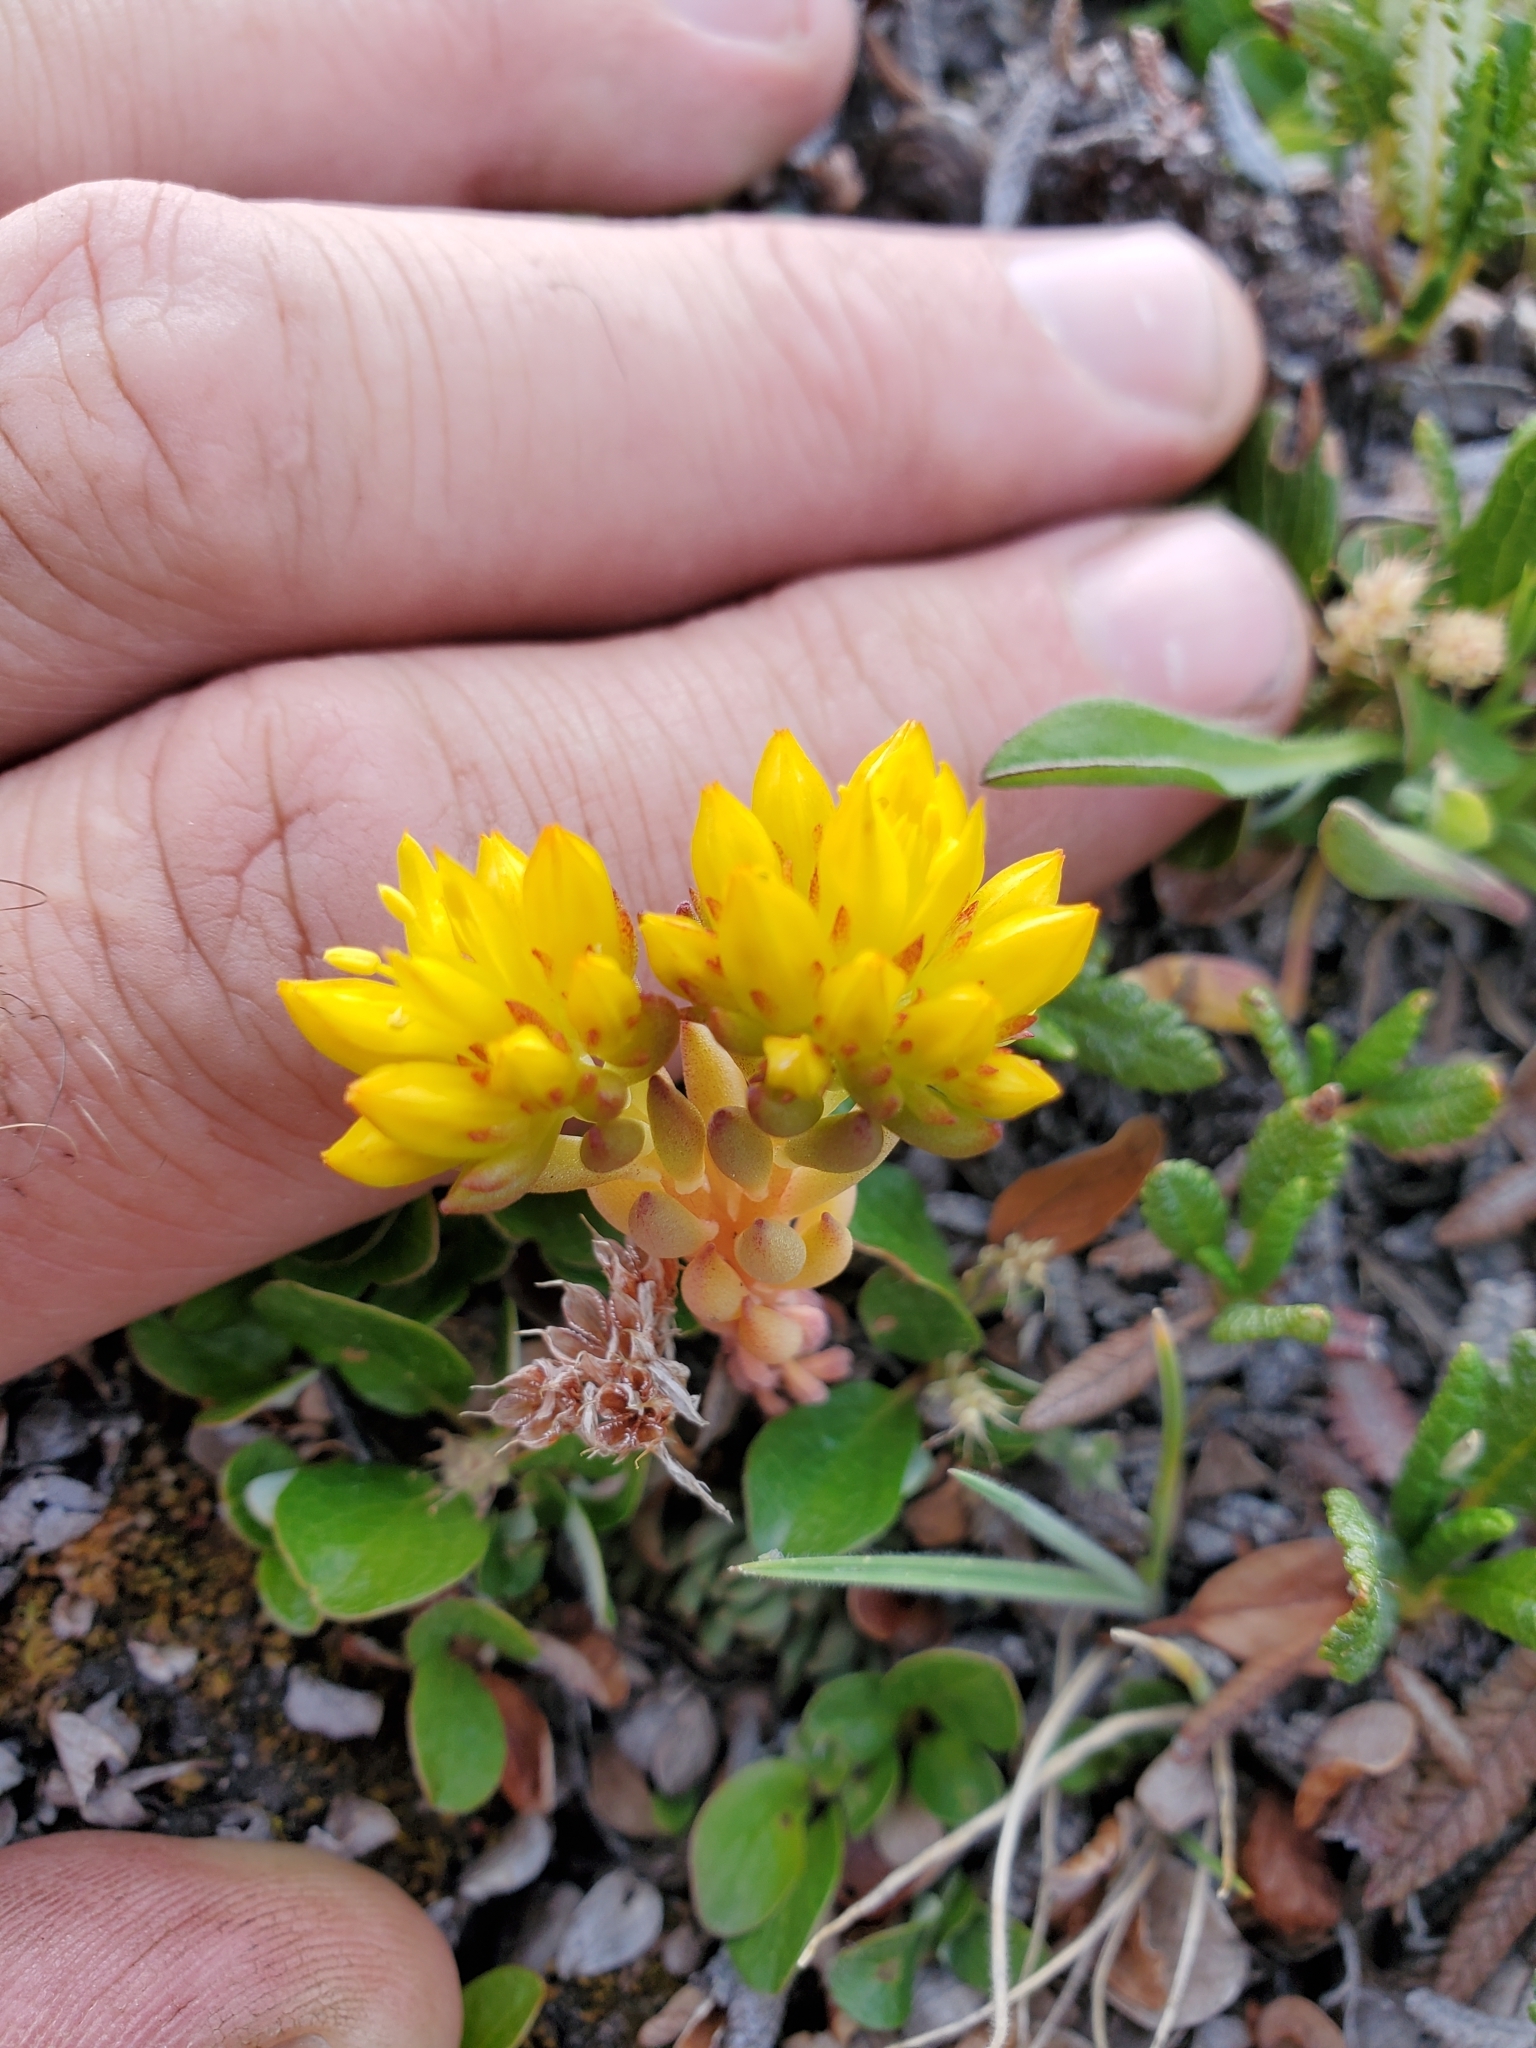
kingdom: Plantae
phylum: Tracheophyta
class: Magnoliopsida
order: Saxifragales
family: Crassulaceae
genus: Sedum
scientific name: Sedum lanceolatum
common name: Common stonecrop
